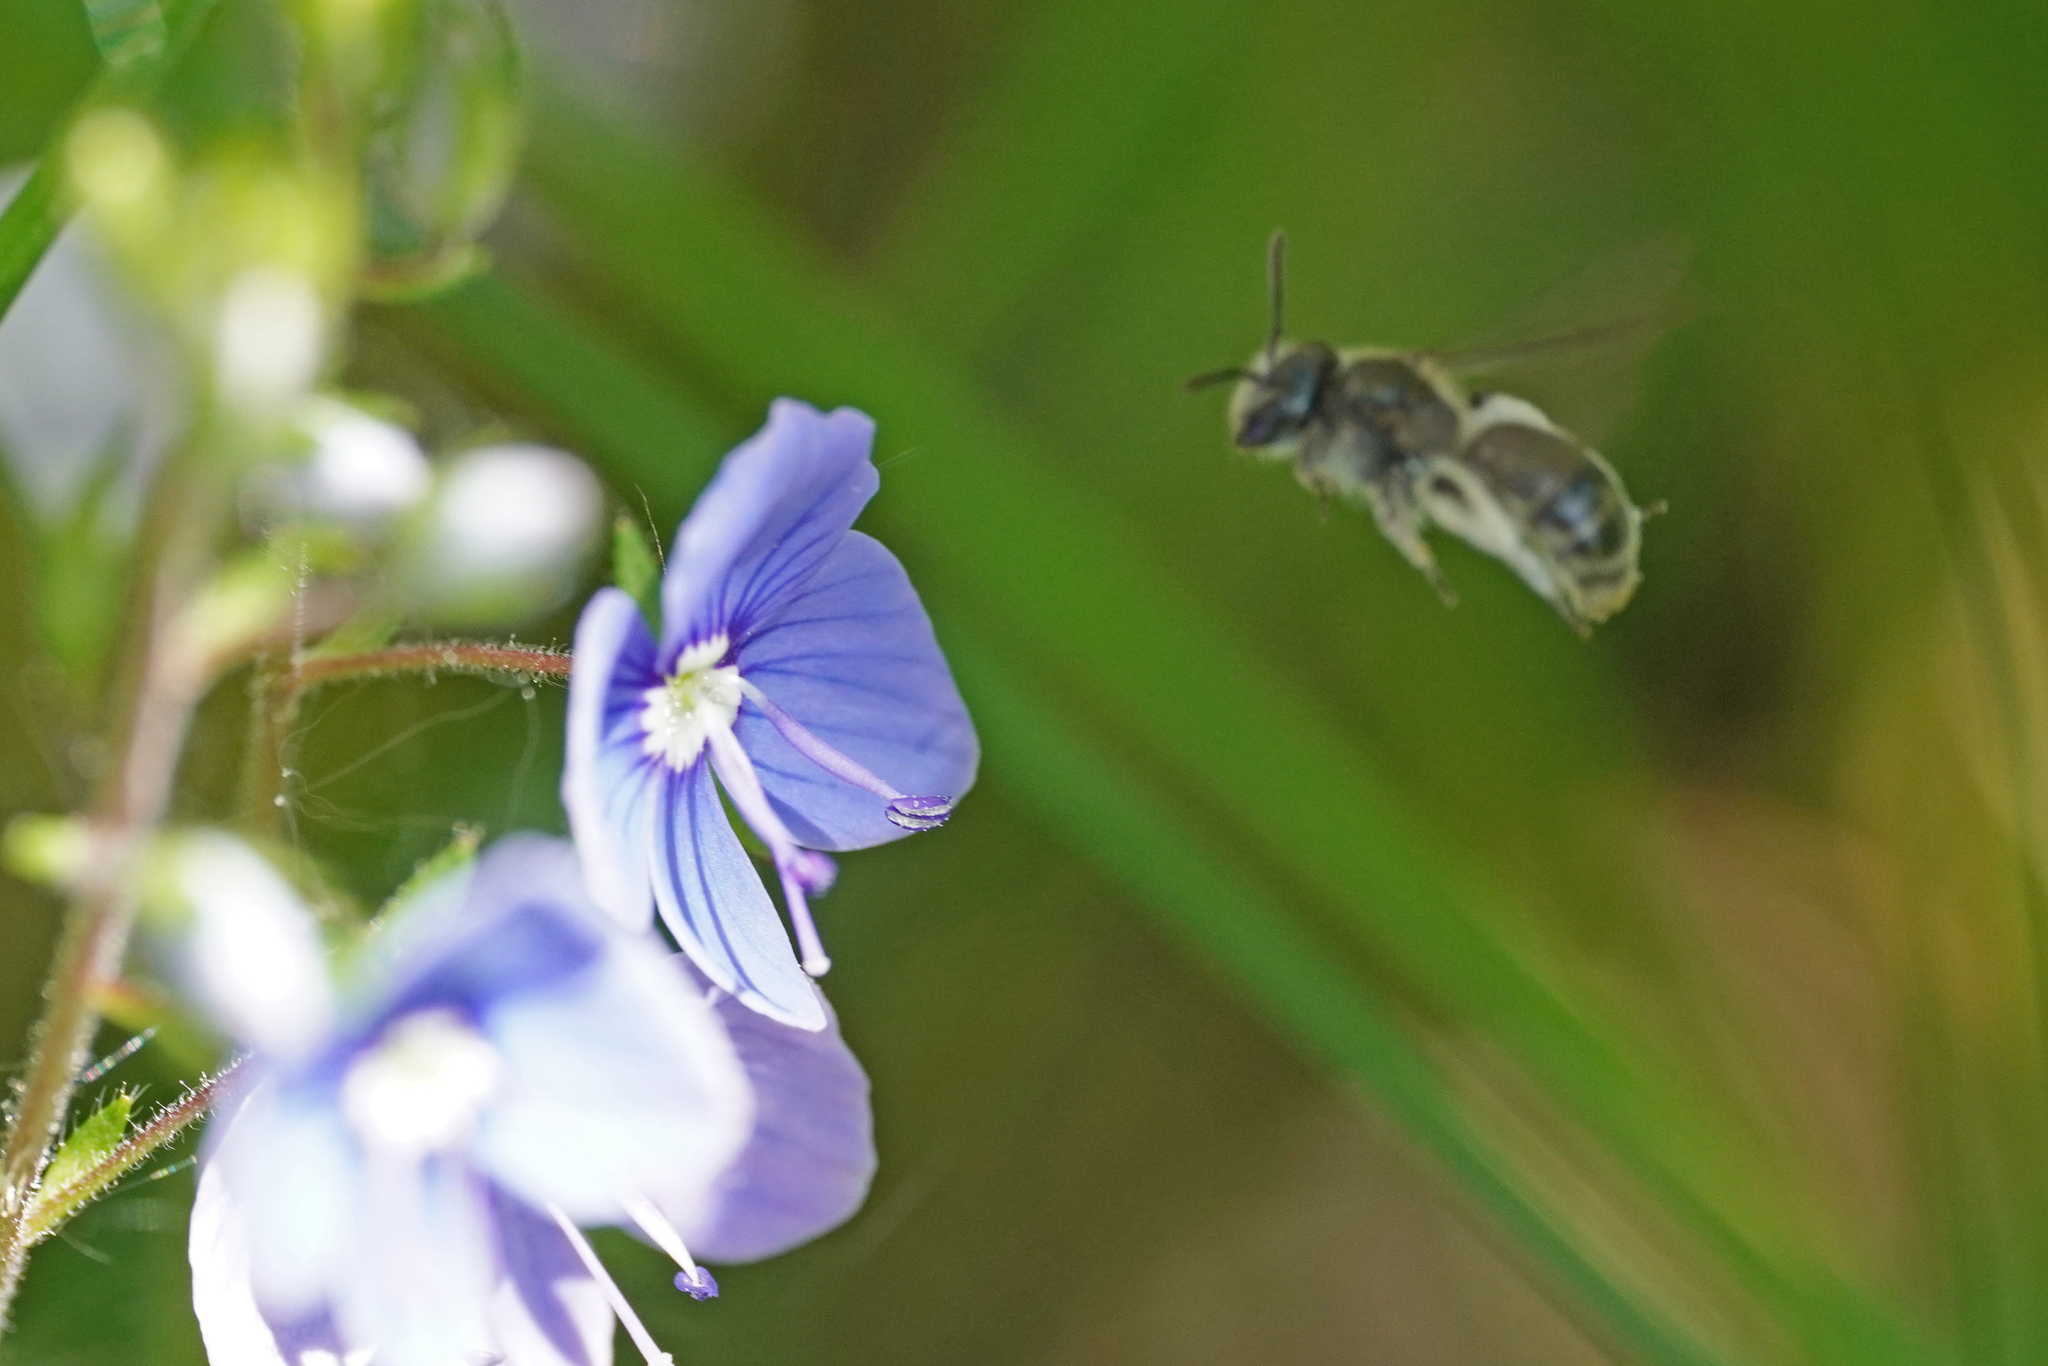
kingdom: Animalia
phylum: Arthropoda
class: Insecta
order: Hymenoptera
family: Andrenidae
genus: Andrena
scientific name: Andrena viridescens
